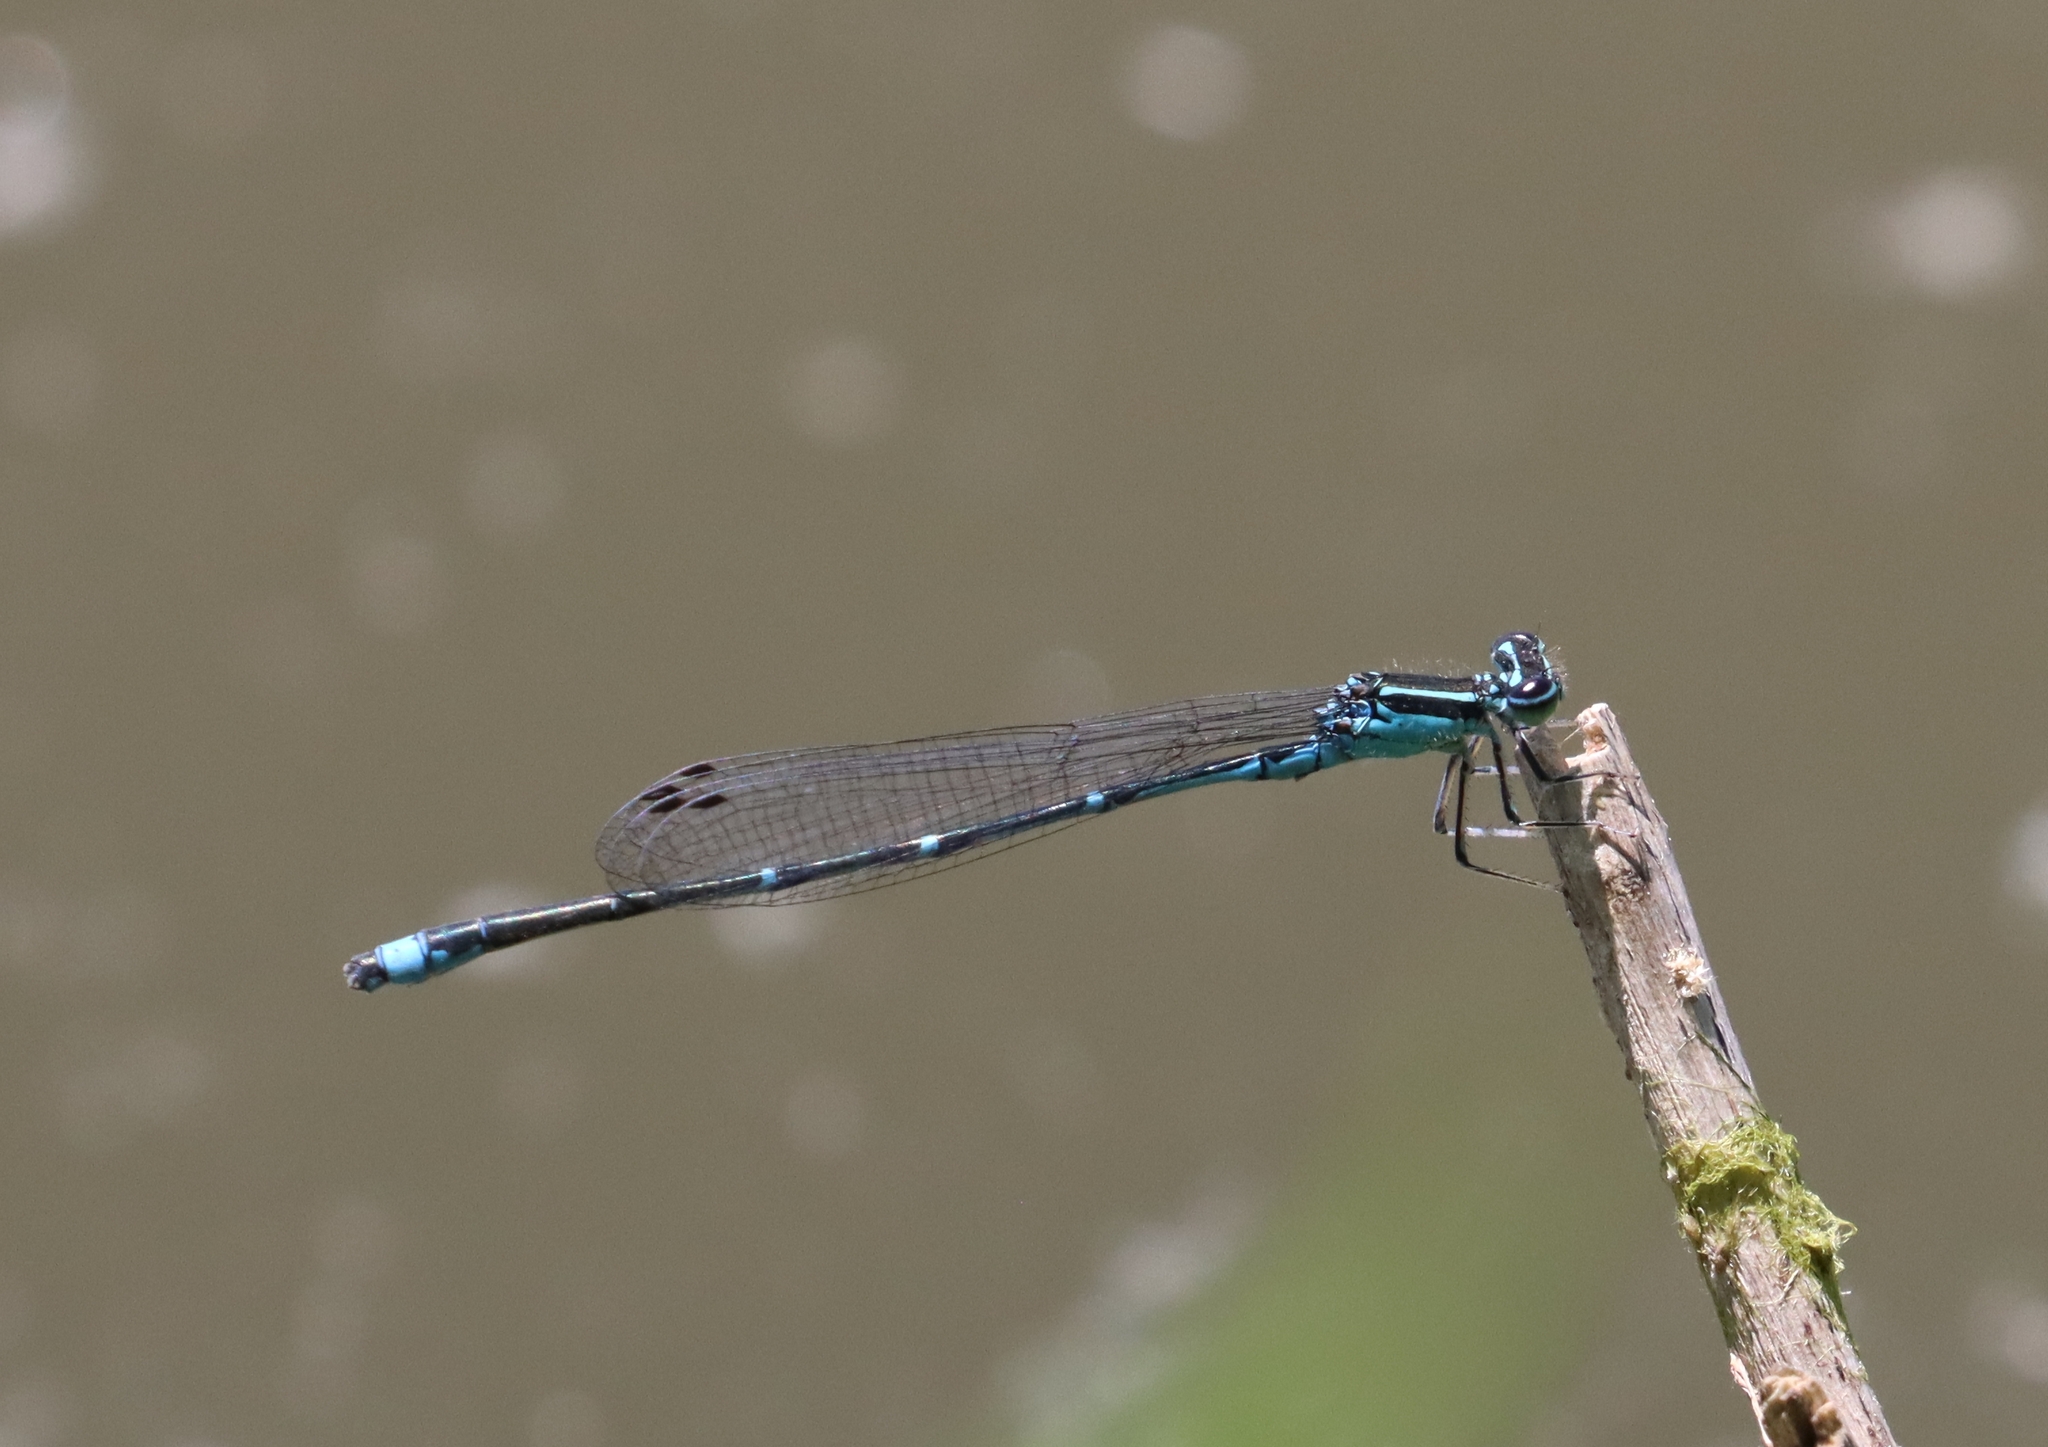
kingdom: Animalia
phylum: Arthropoda
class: Insecta
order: Odonata
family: Coenagrionidae
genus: Enallagma
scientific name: Enallagma exsulans
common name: Stream bluet
